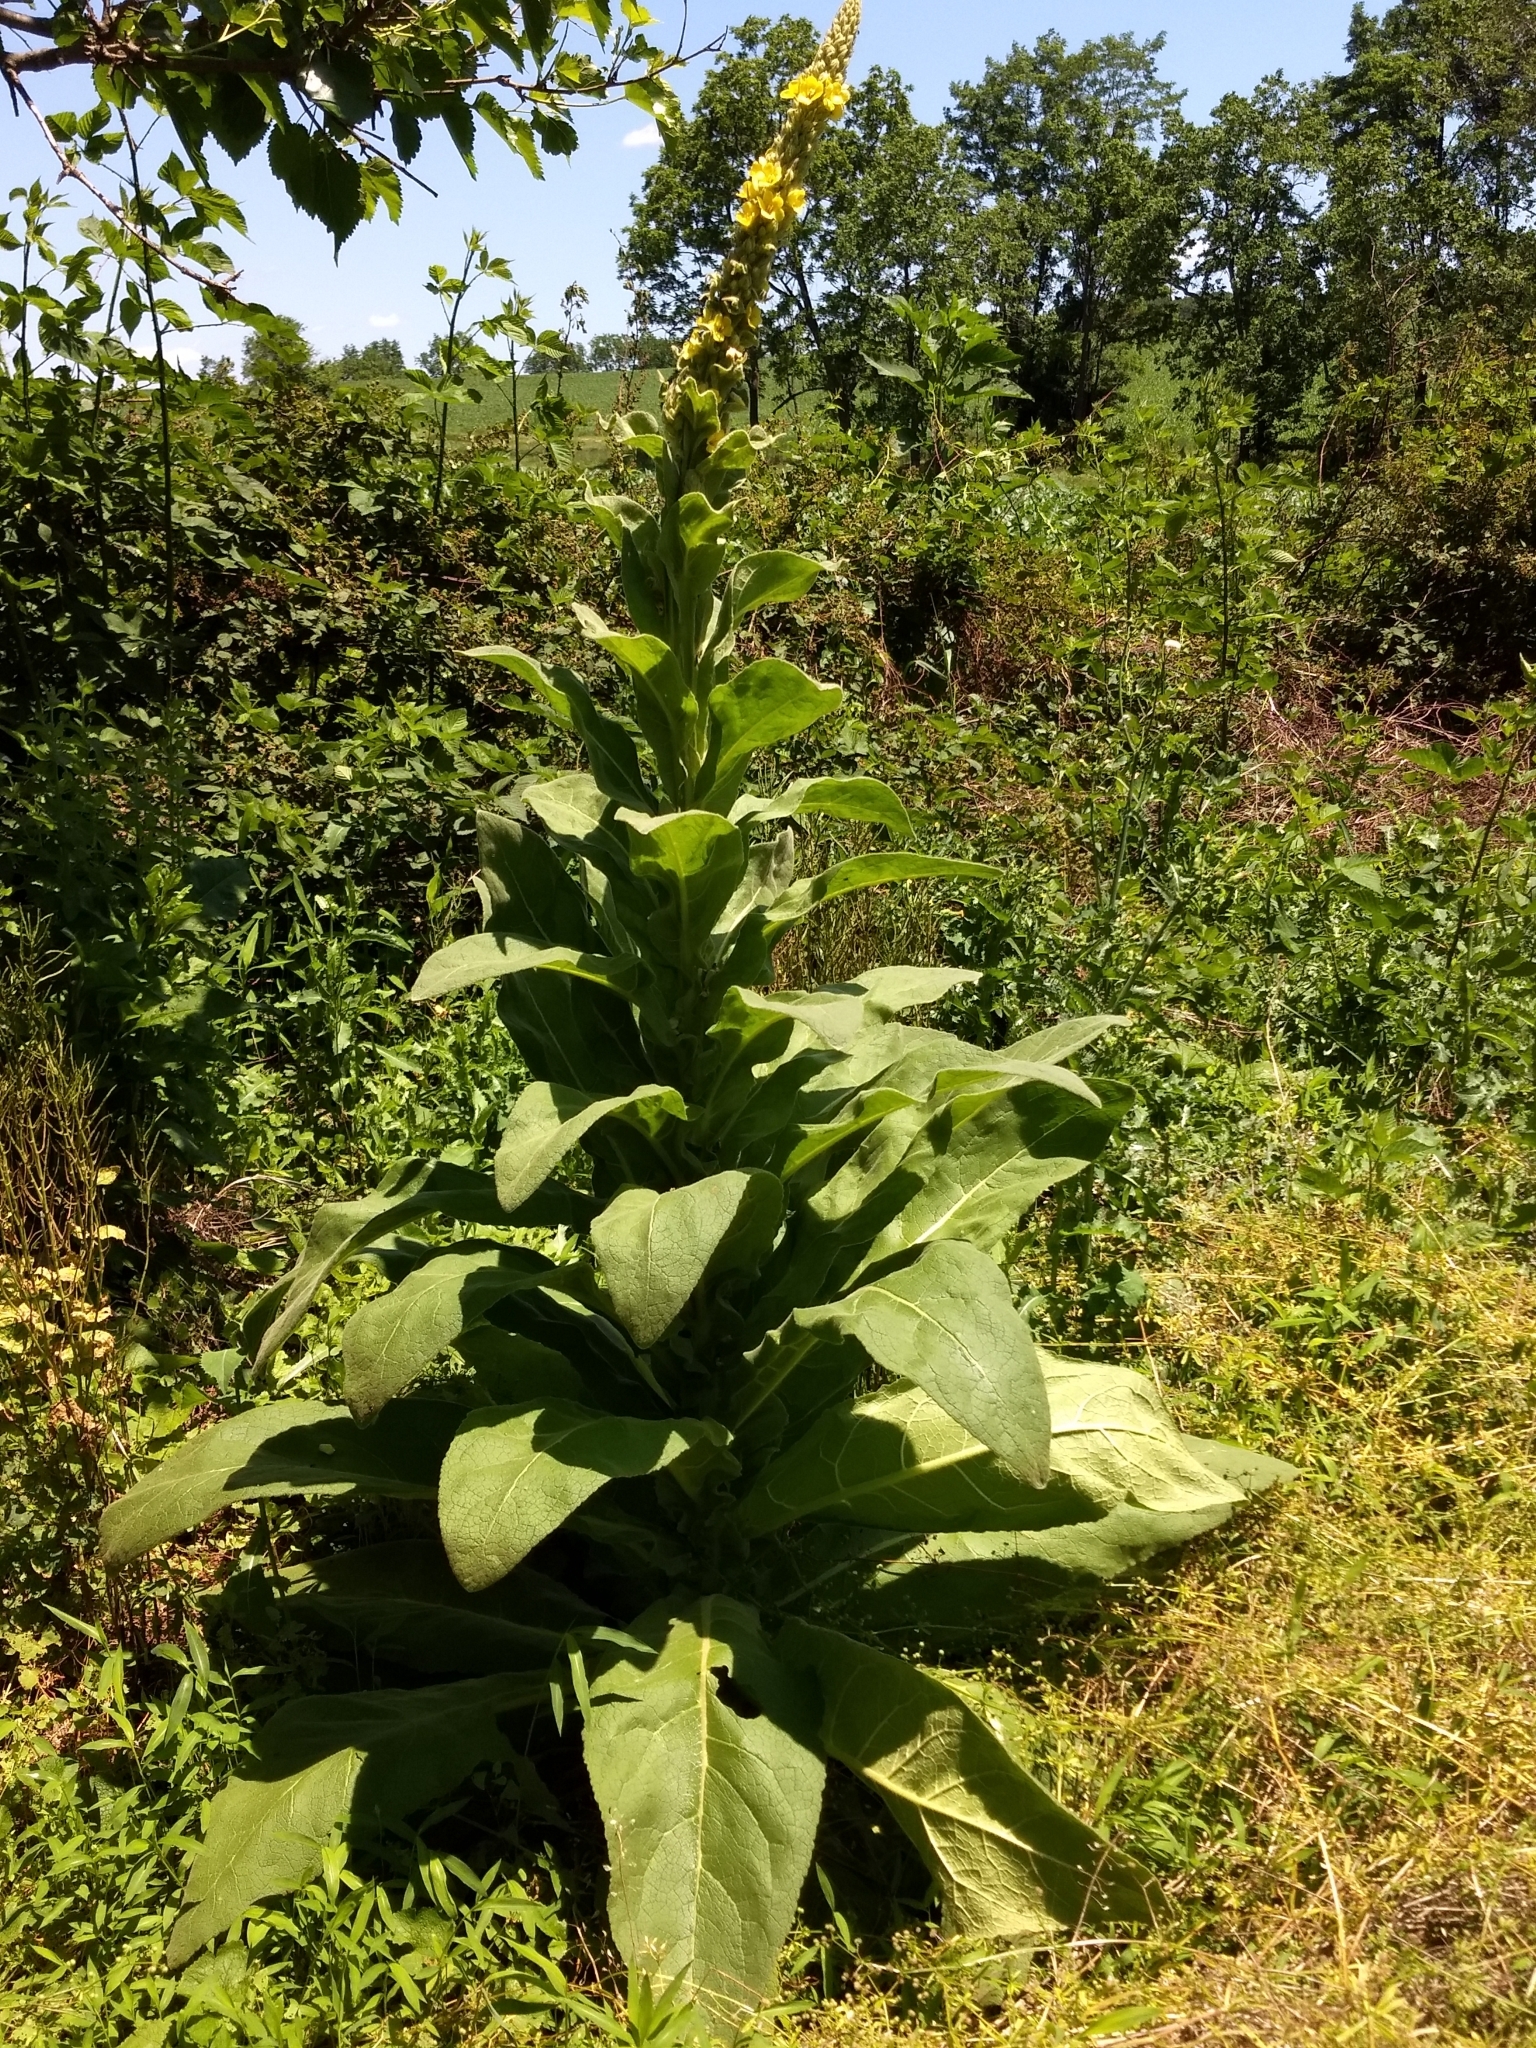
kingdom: Plantae
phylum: Tracheophyta
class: Magnoliopsida
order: Lamiales
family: Scrophulariaceae
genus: Verbascum
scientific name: Verbascum thapsus
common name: Common mullein
